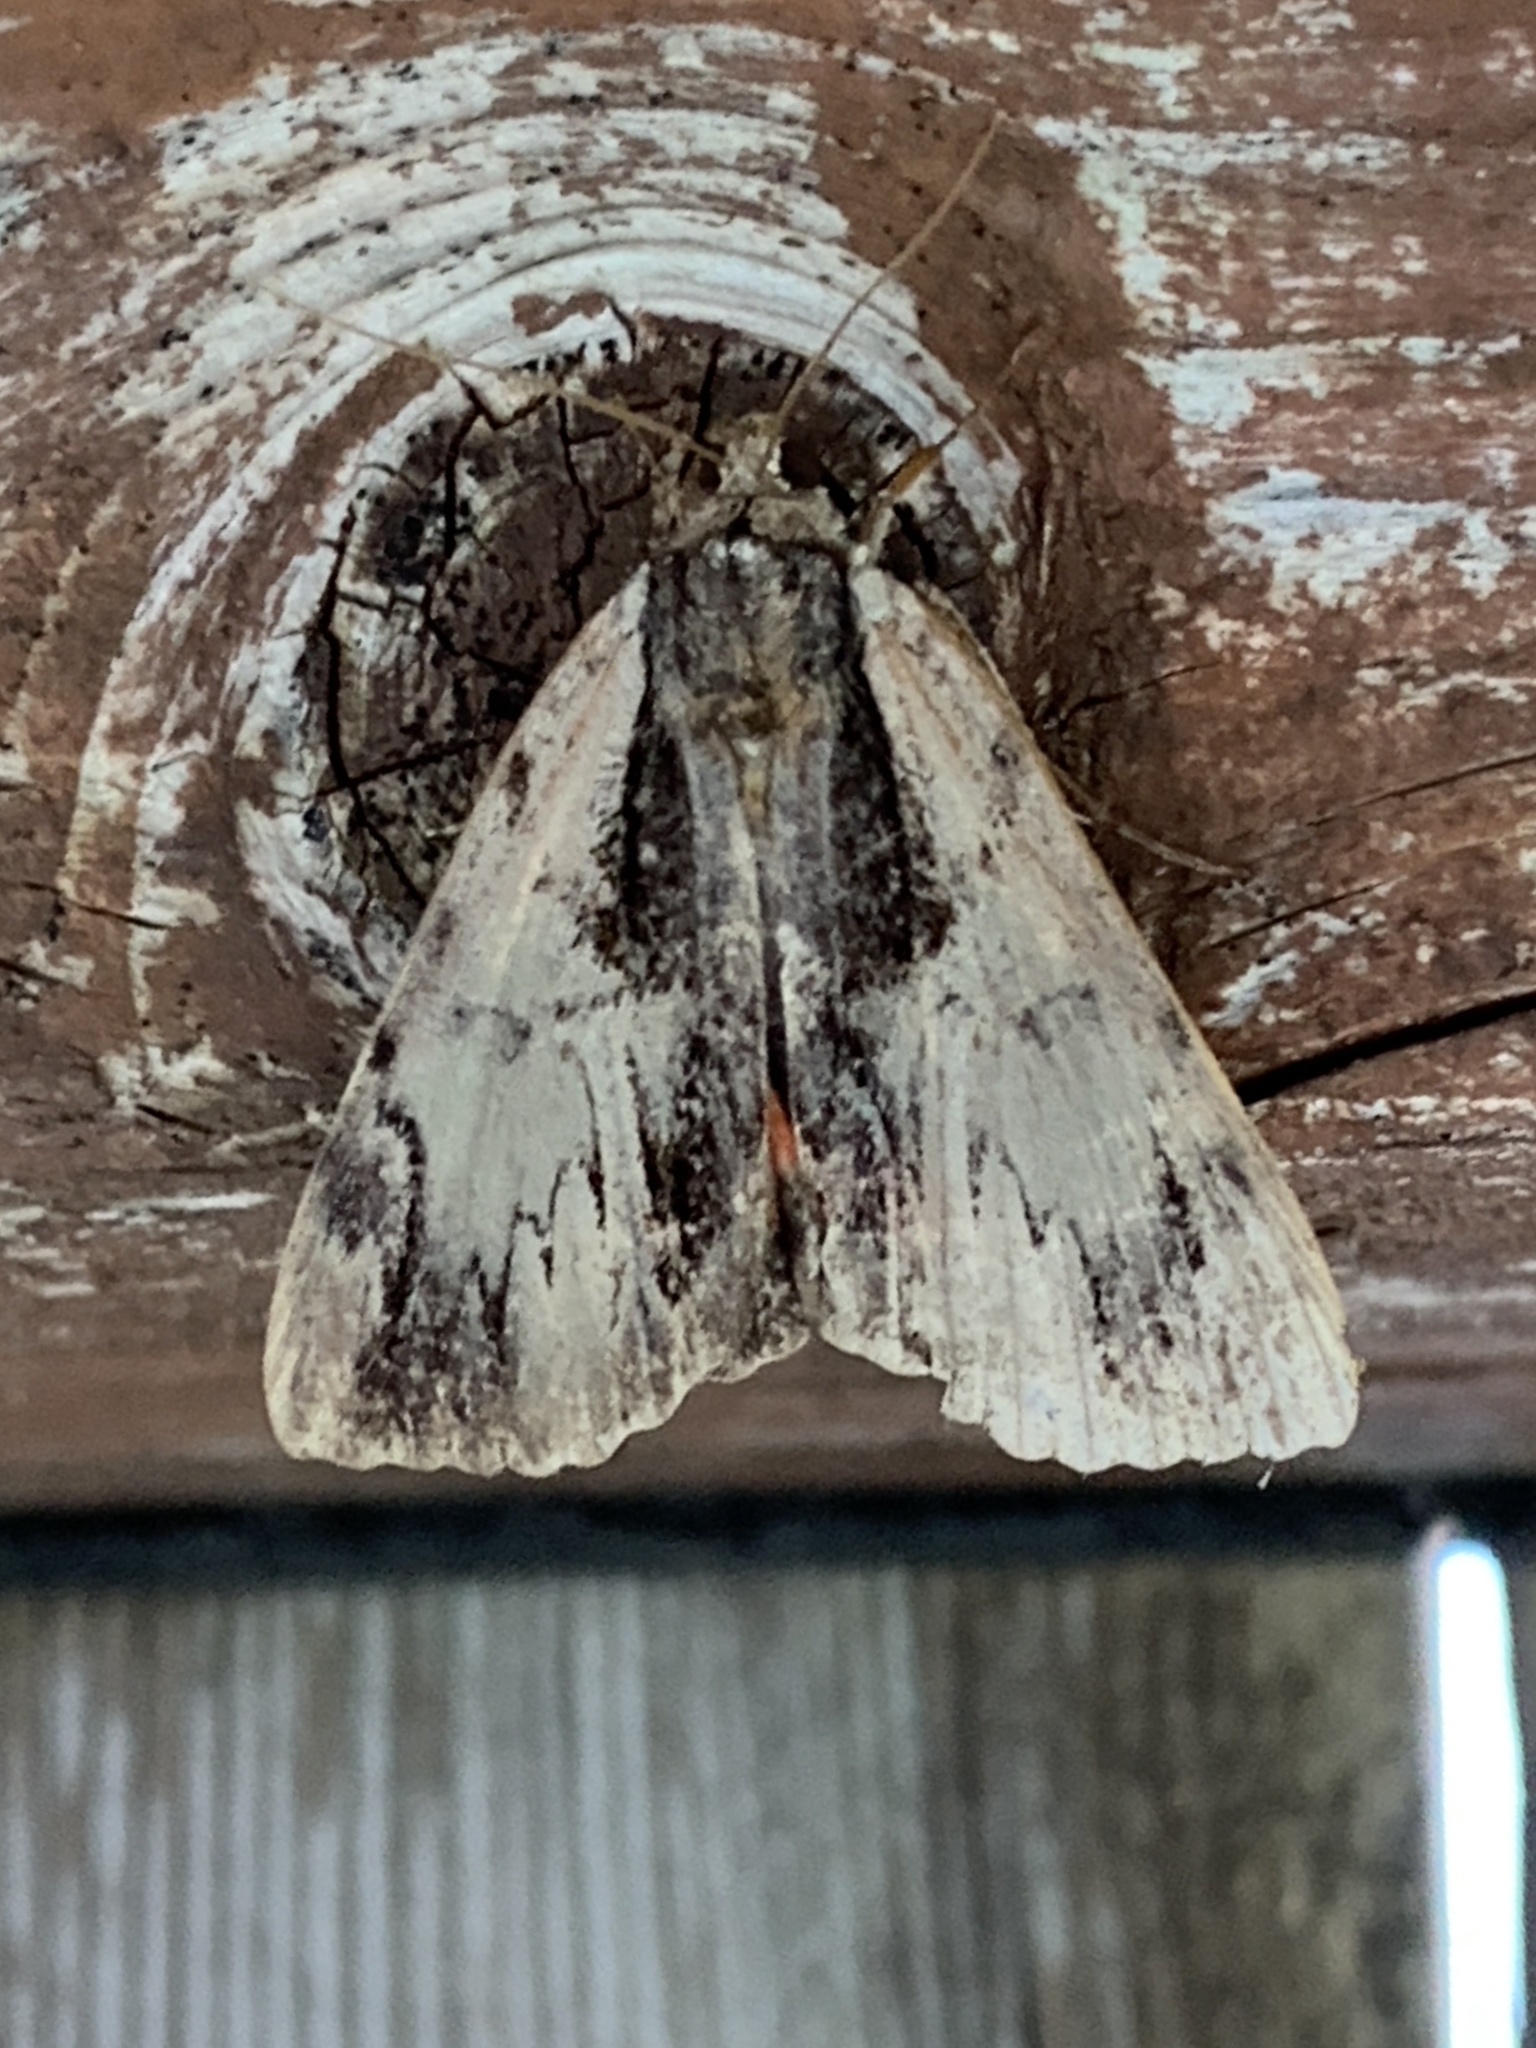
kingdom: Animalia
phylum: Arthropoda
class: Insecta
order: Lepidoptera
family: Erebidae
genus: Catocala
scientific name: Catocala ultronia
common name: Ultronia underwing
